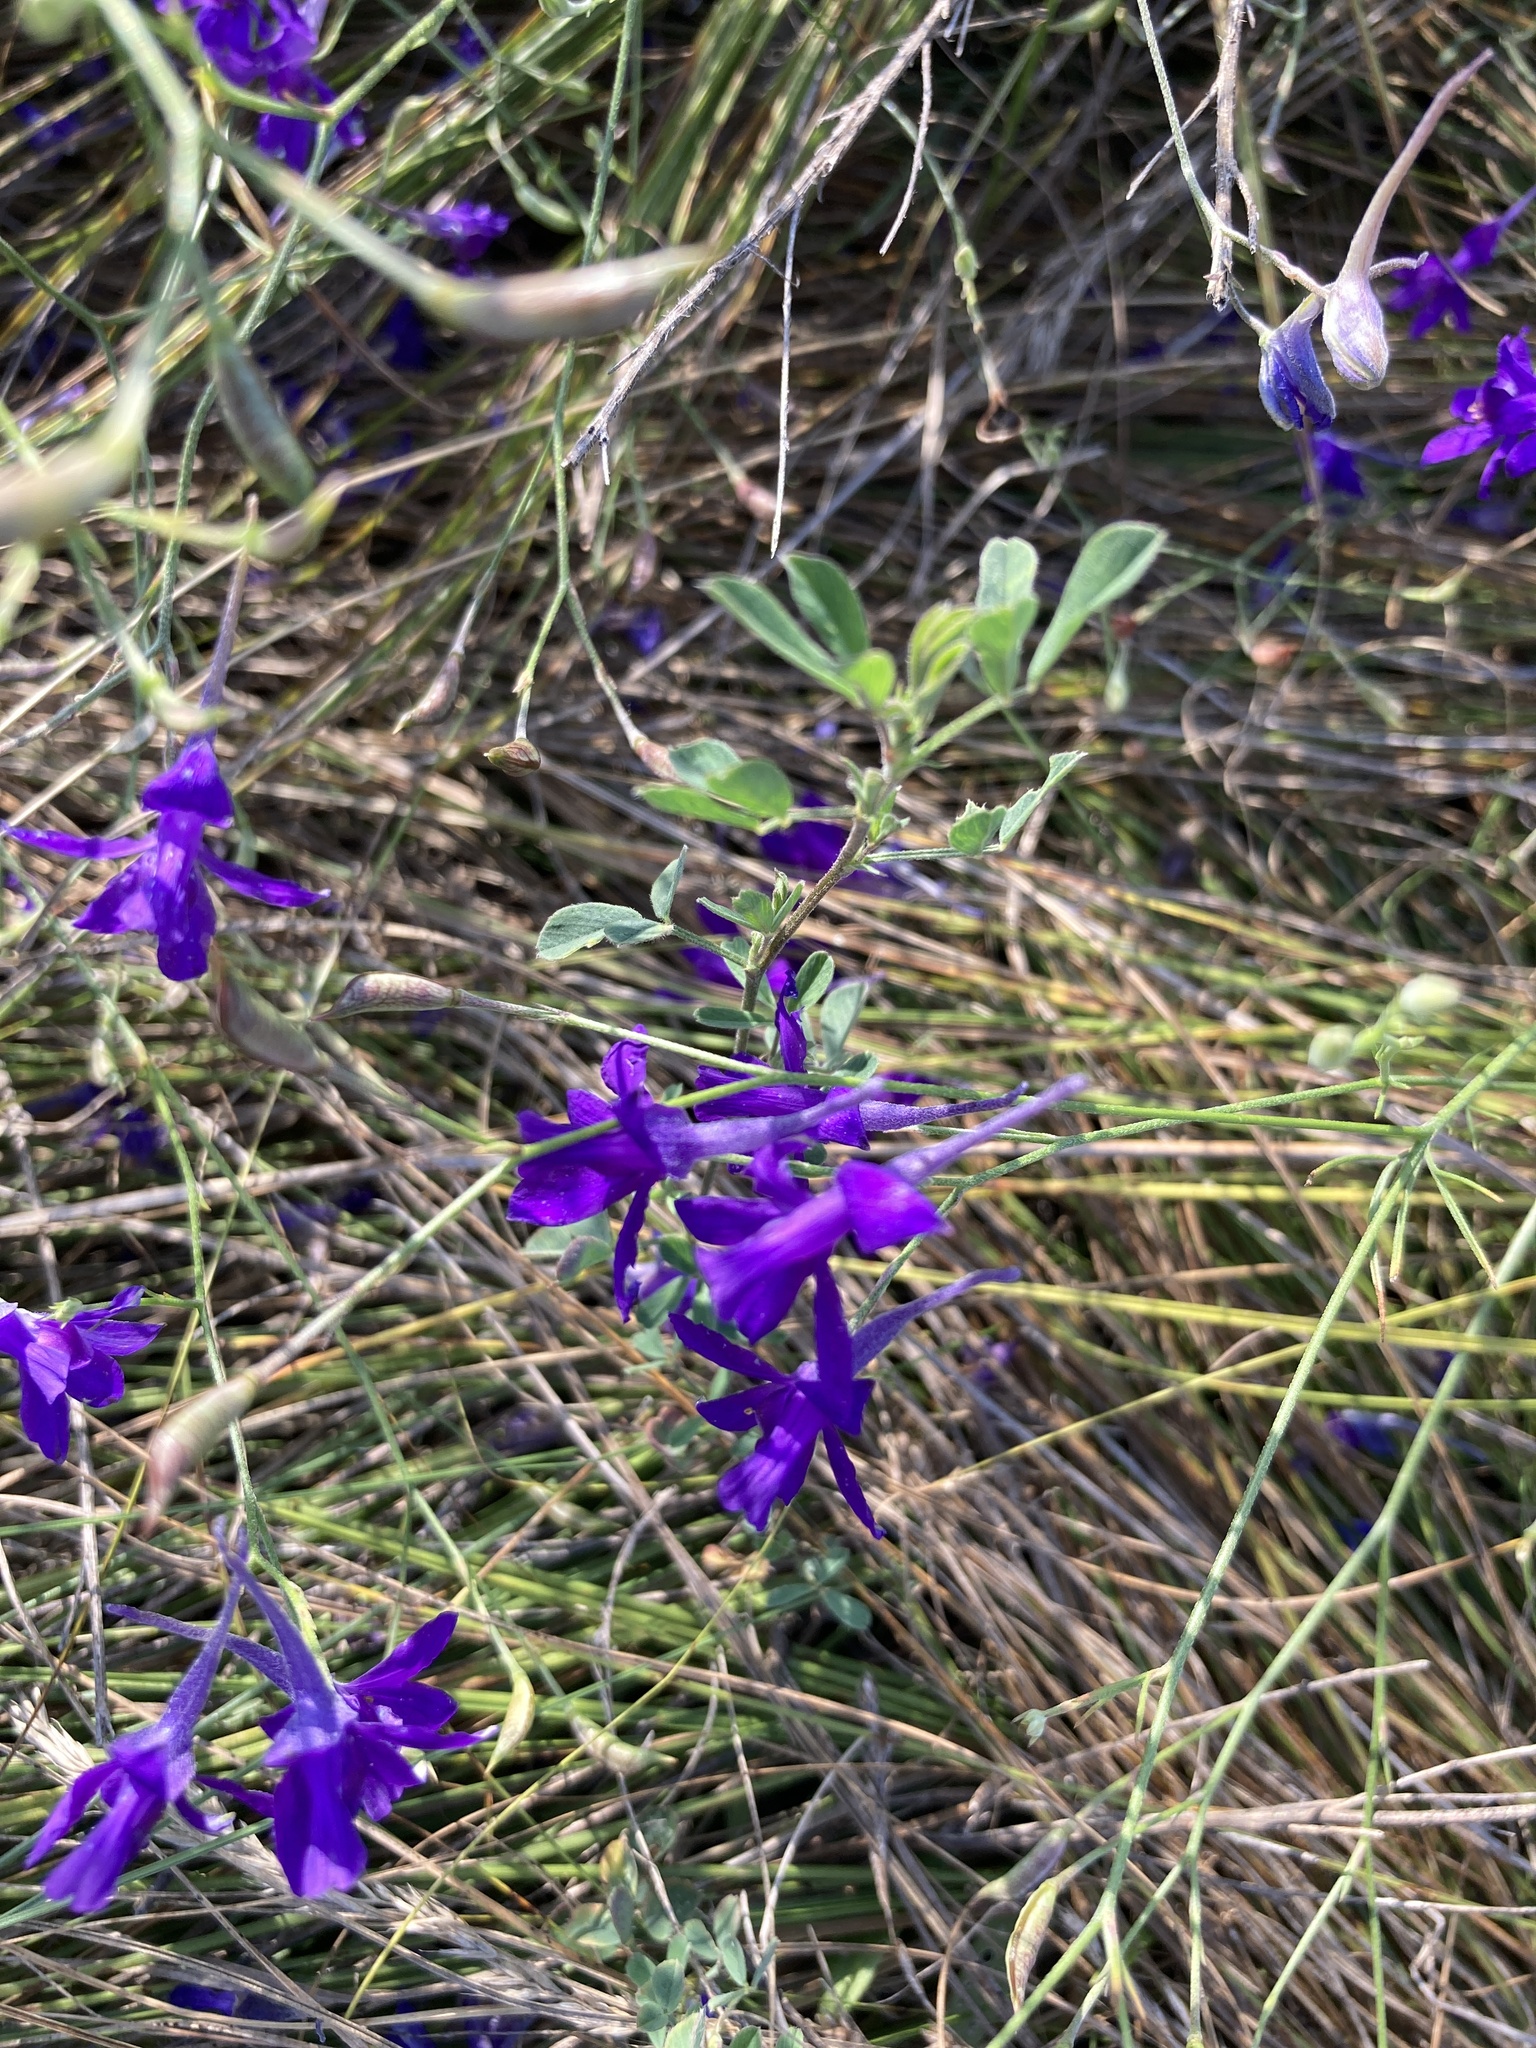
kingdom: Plantae
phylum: Tracheophyta
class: Magnoliopsida
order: Ranunculales
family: Ranunculaceae
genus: Delphinium
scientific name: Delphinium consolida
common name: Branching larkspur
